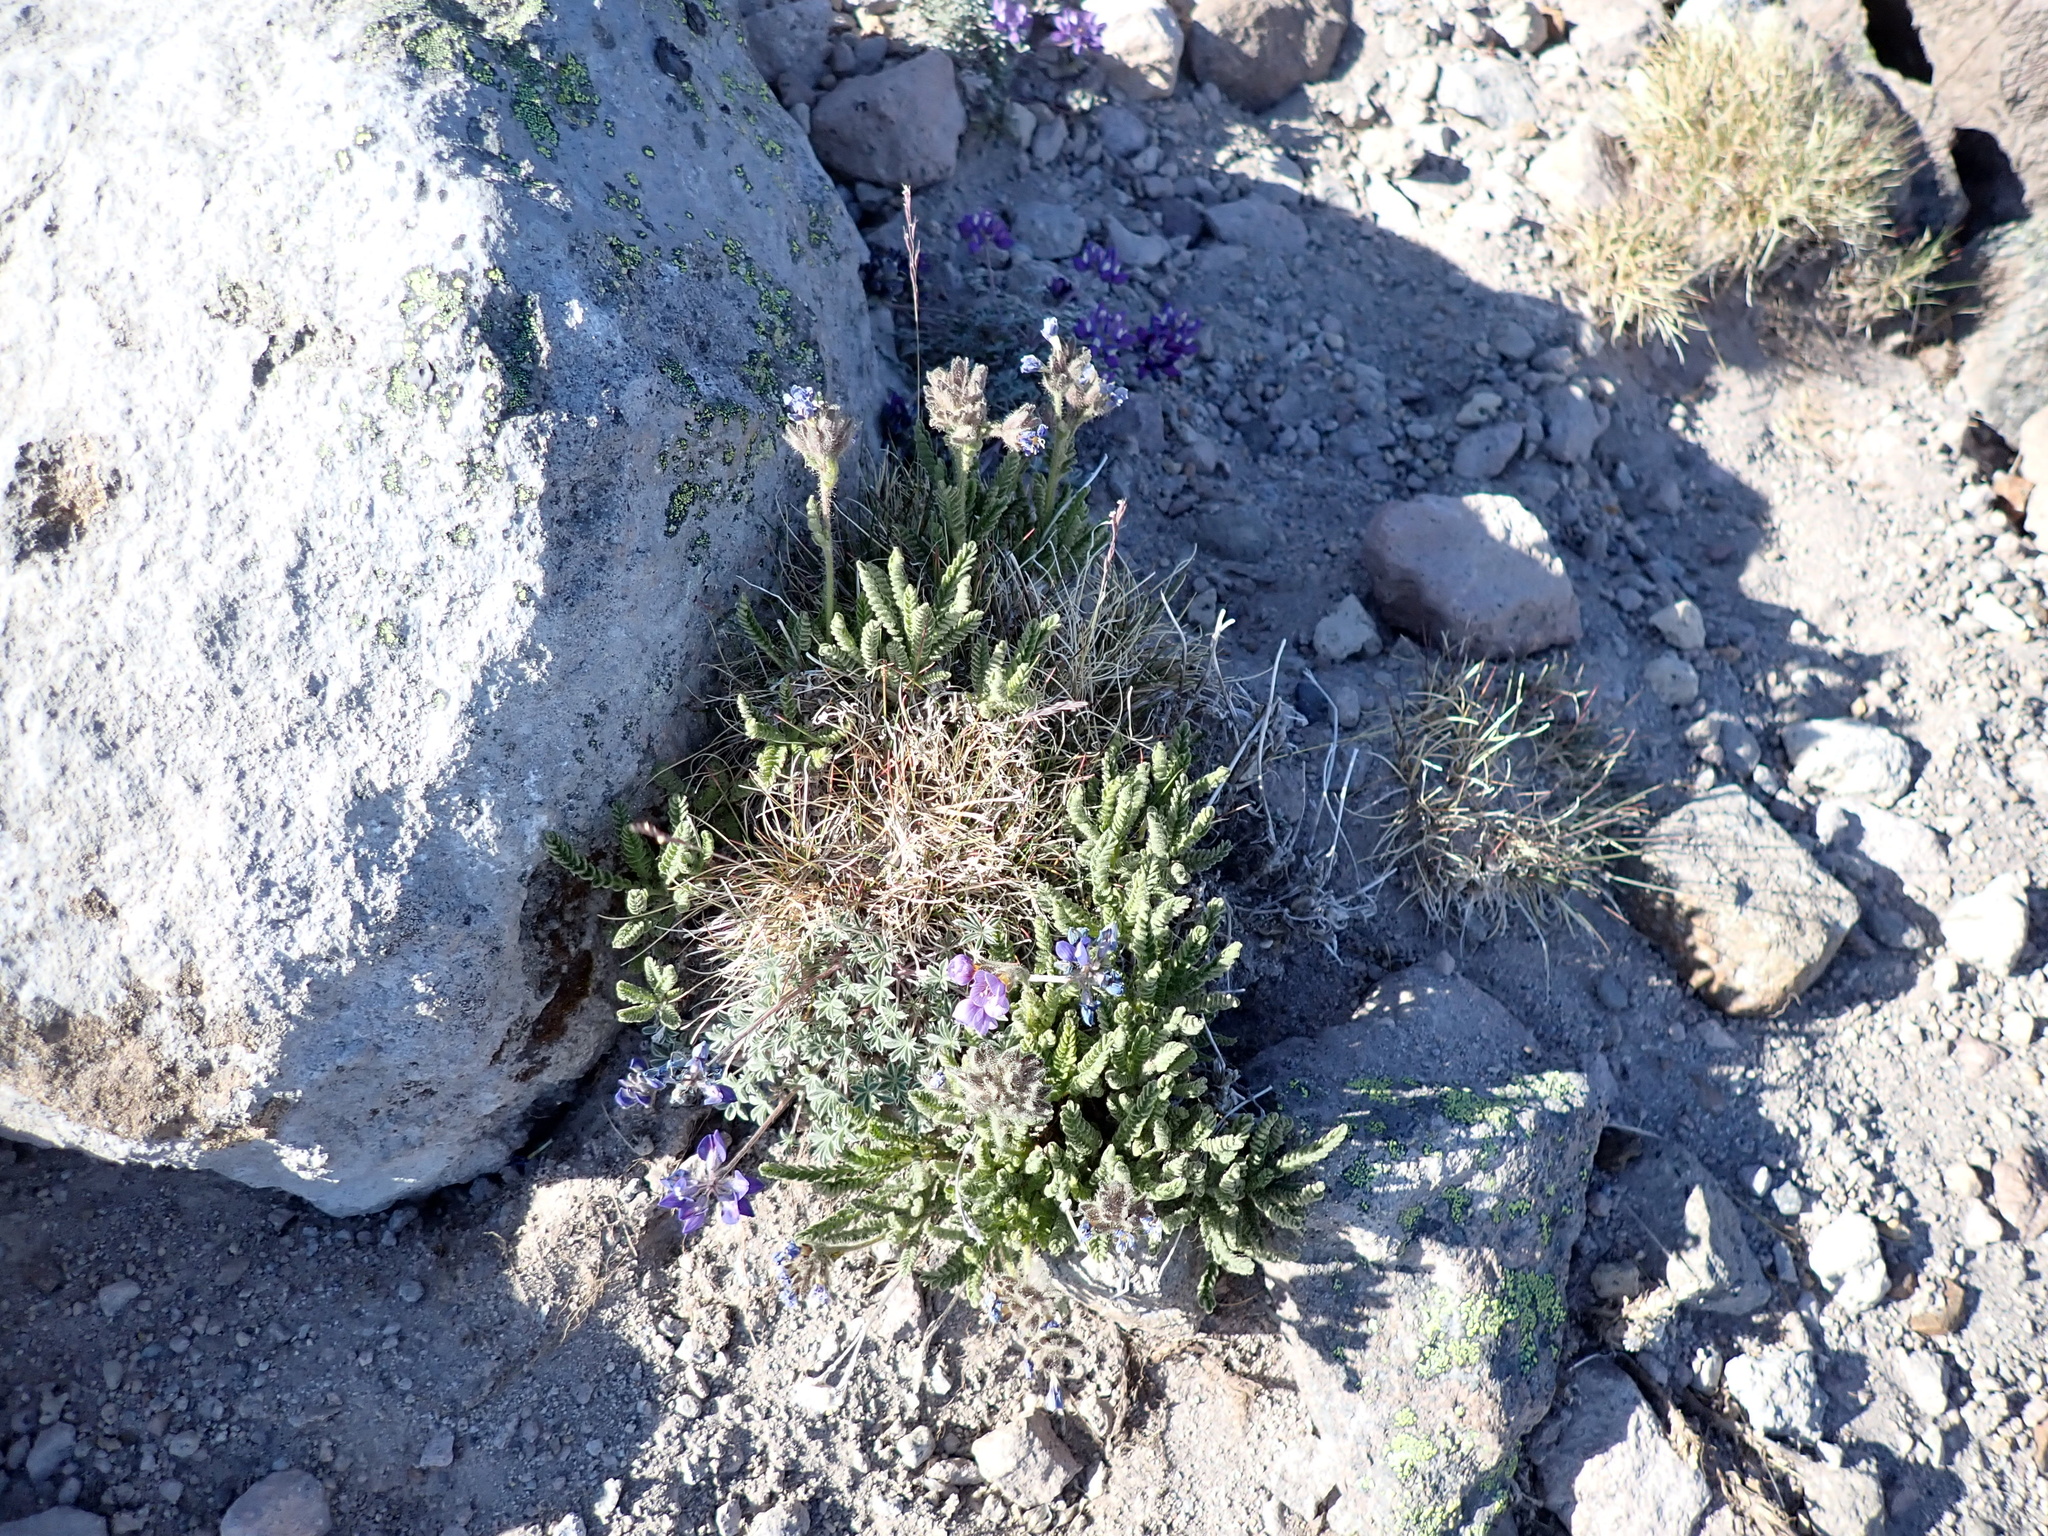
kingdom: Plantae
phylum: Tracheophyta
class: Magnoliopsida
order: Ericales
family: Polemoniaceae
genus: Polemonium
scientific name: Polemonium elegans
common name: Elegant jacob's-ladder
